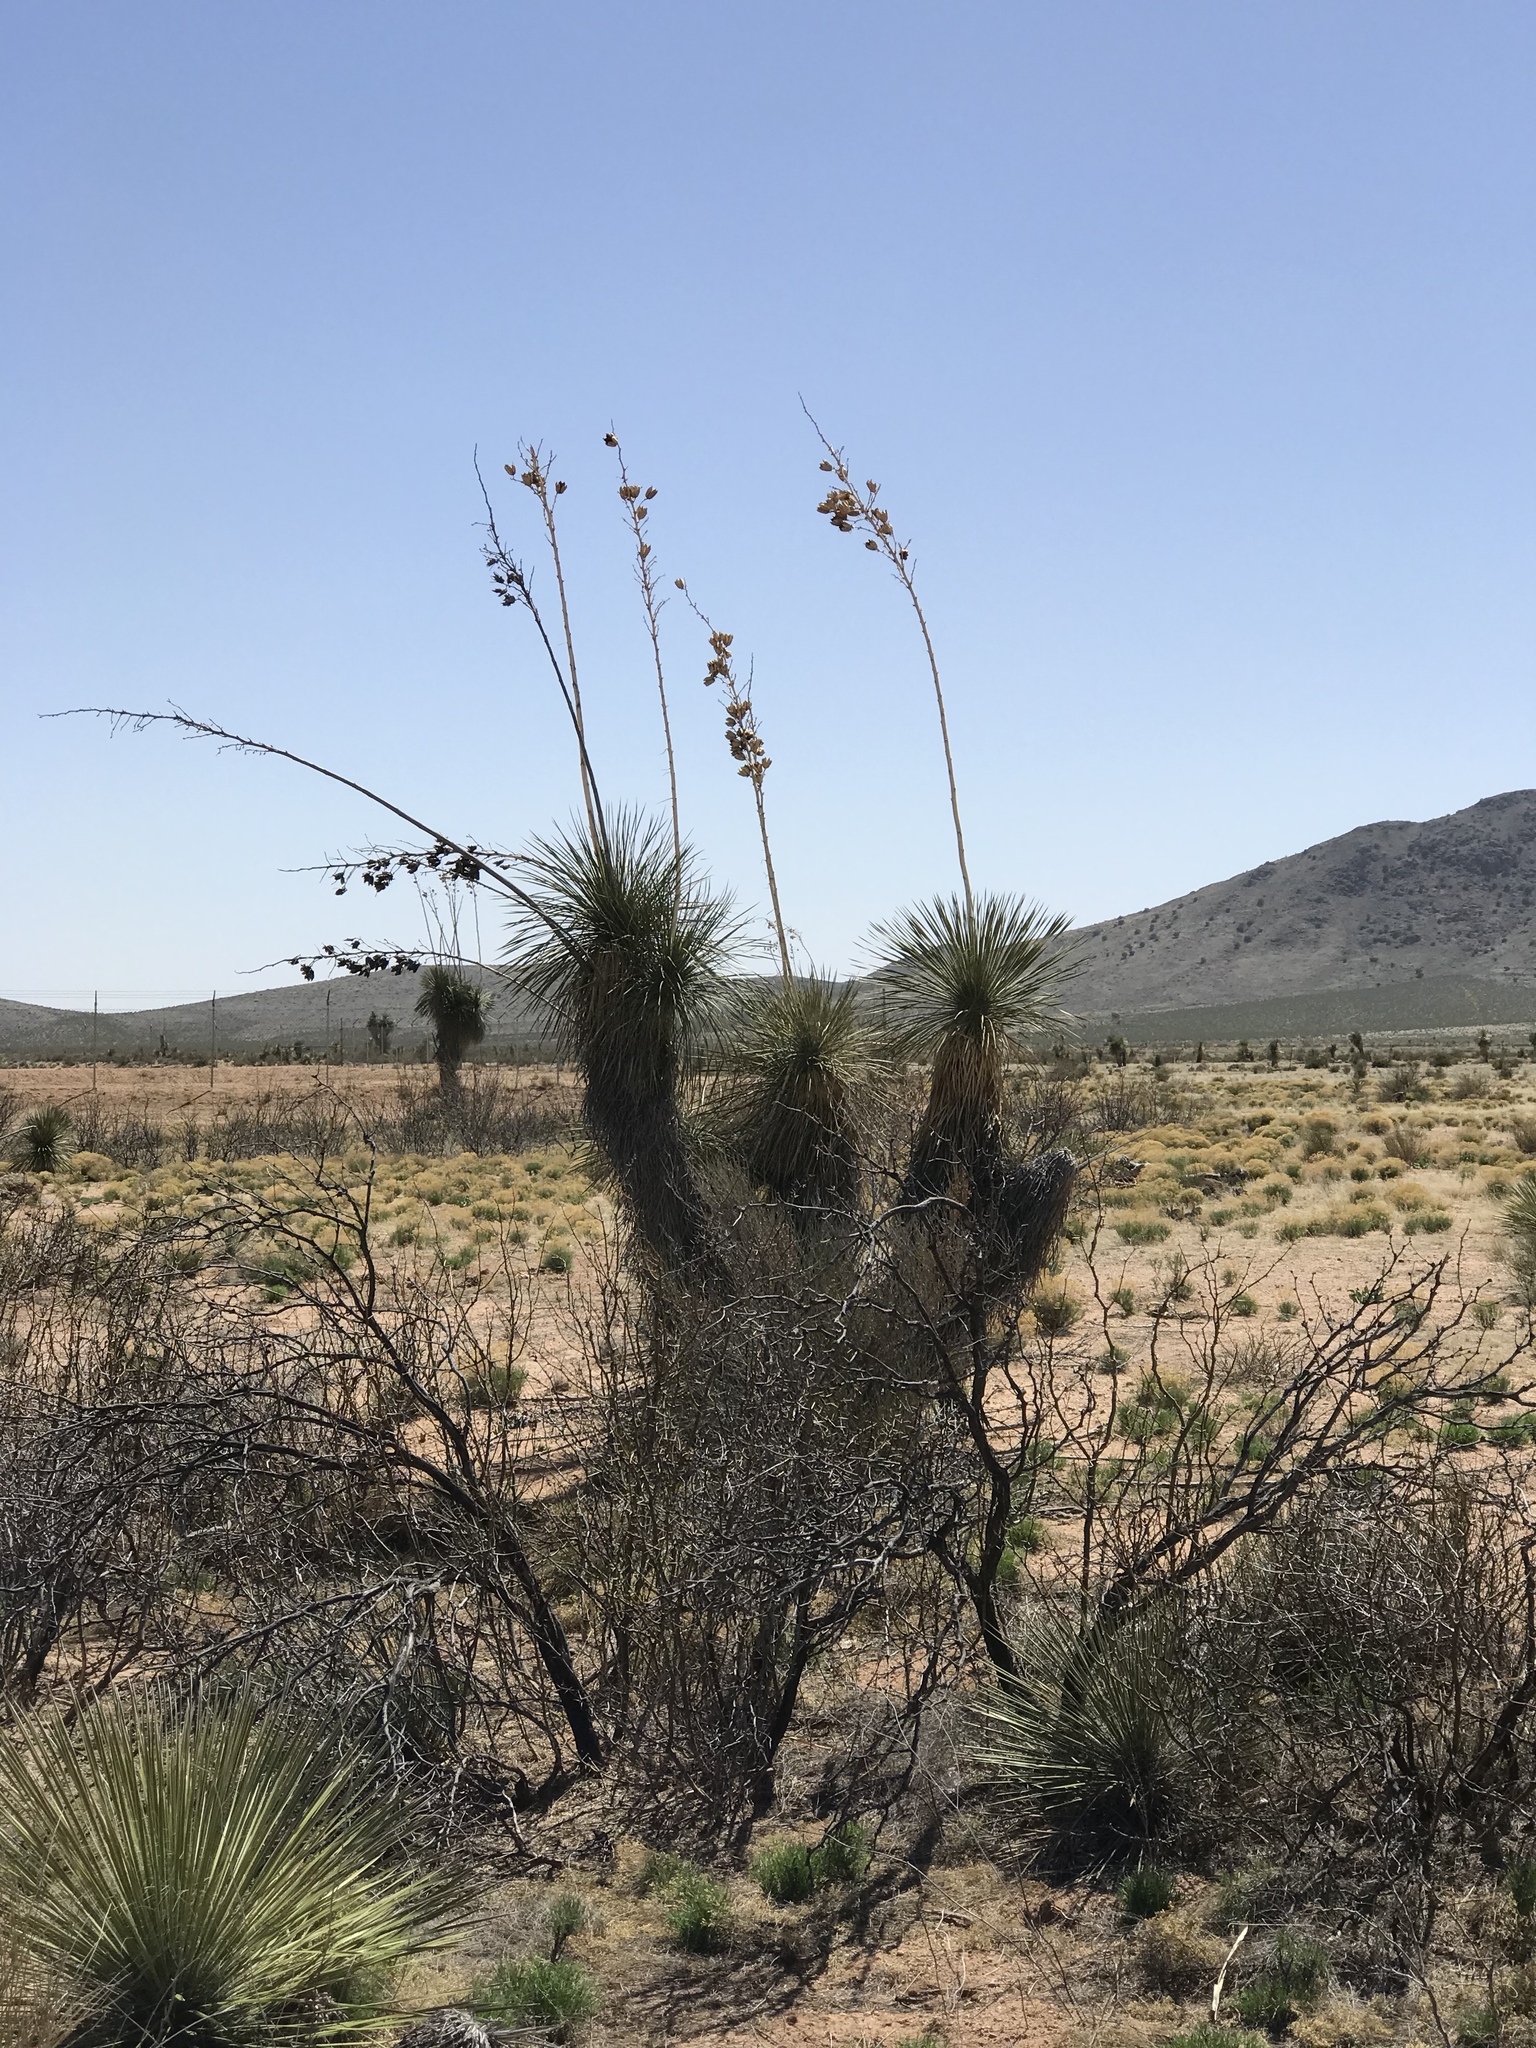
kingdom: Plantae
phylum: Tracheophyta
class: Liliopsida
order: Asparagales
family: Asparagaceae
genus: Yucca
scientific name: Yucca elata
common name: Palmella
